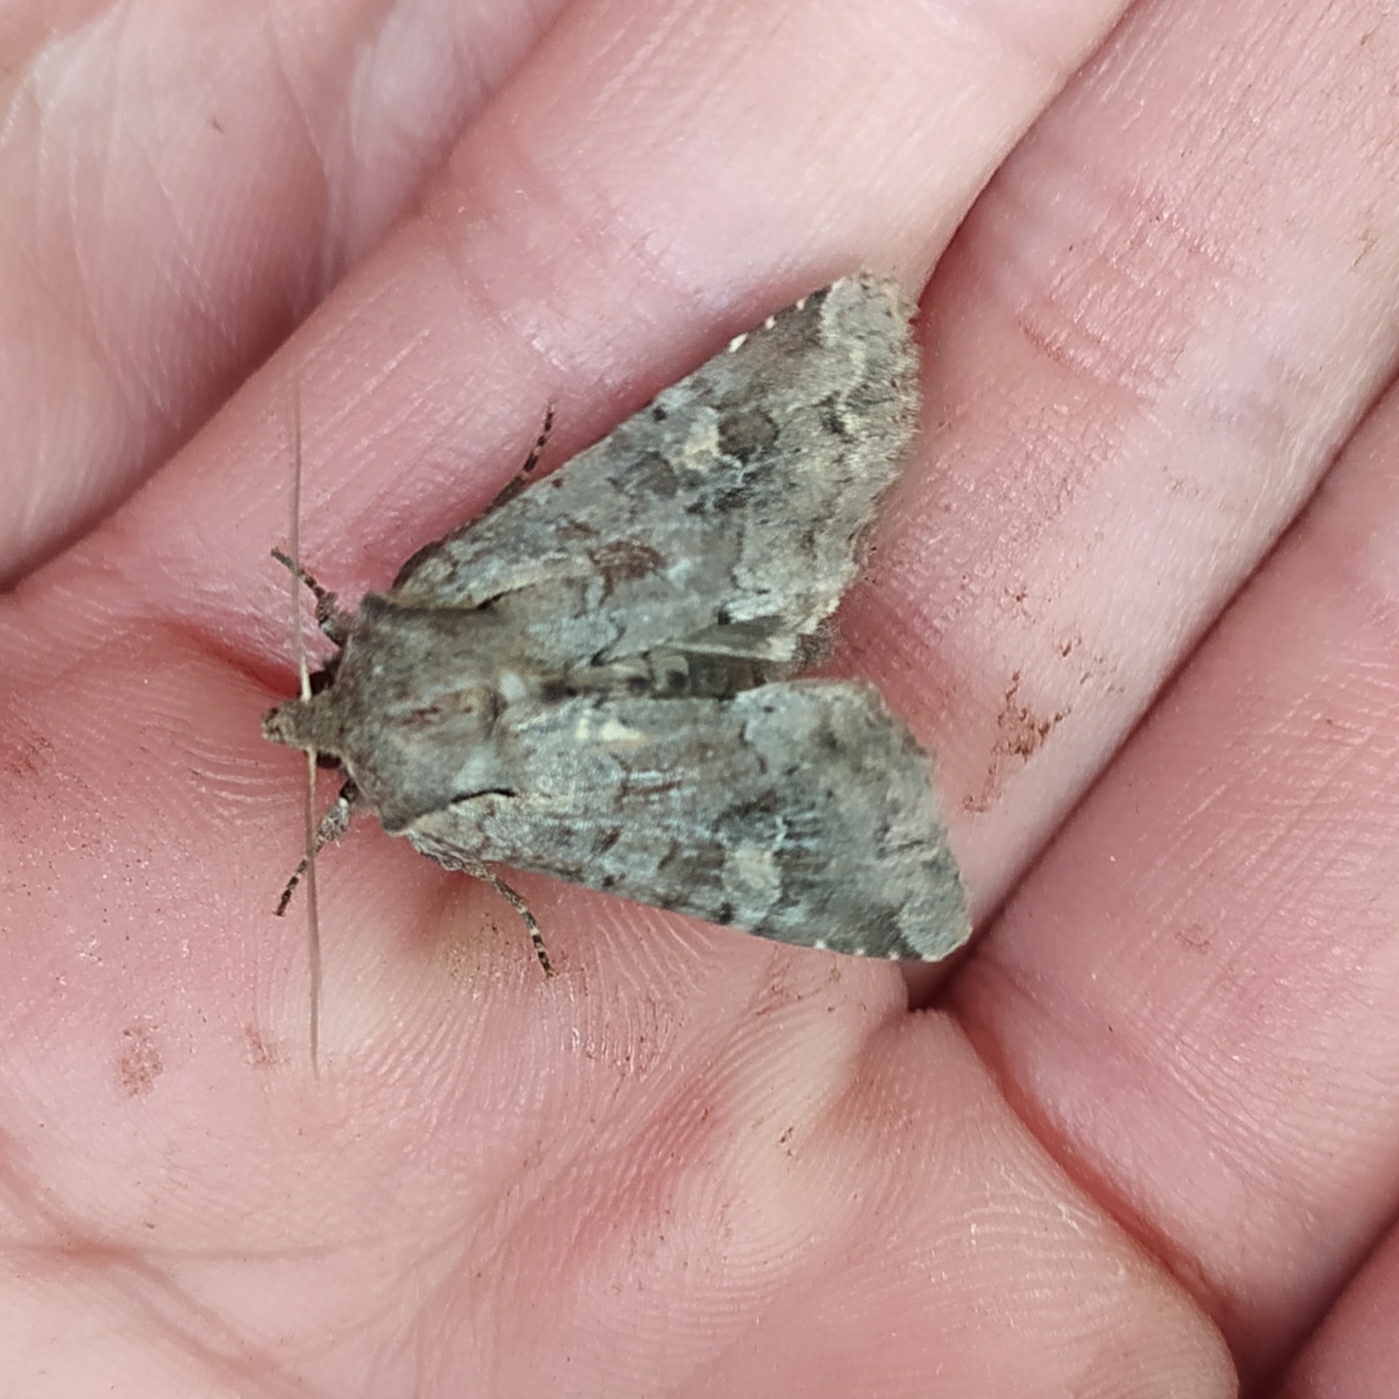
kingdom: Animalia
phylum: Arthropoda
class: Insecta
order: Lepidoptera
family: Noctuidae
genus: Apamea
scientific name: Apamea sordens
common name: Rustic shoulder-knot
